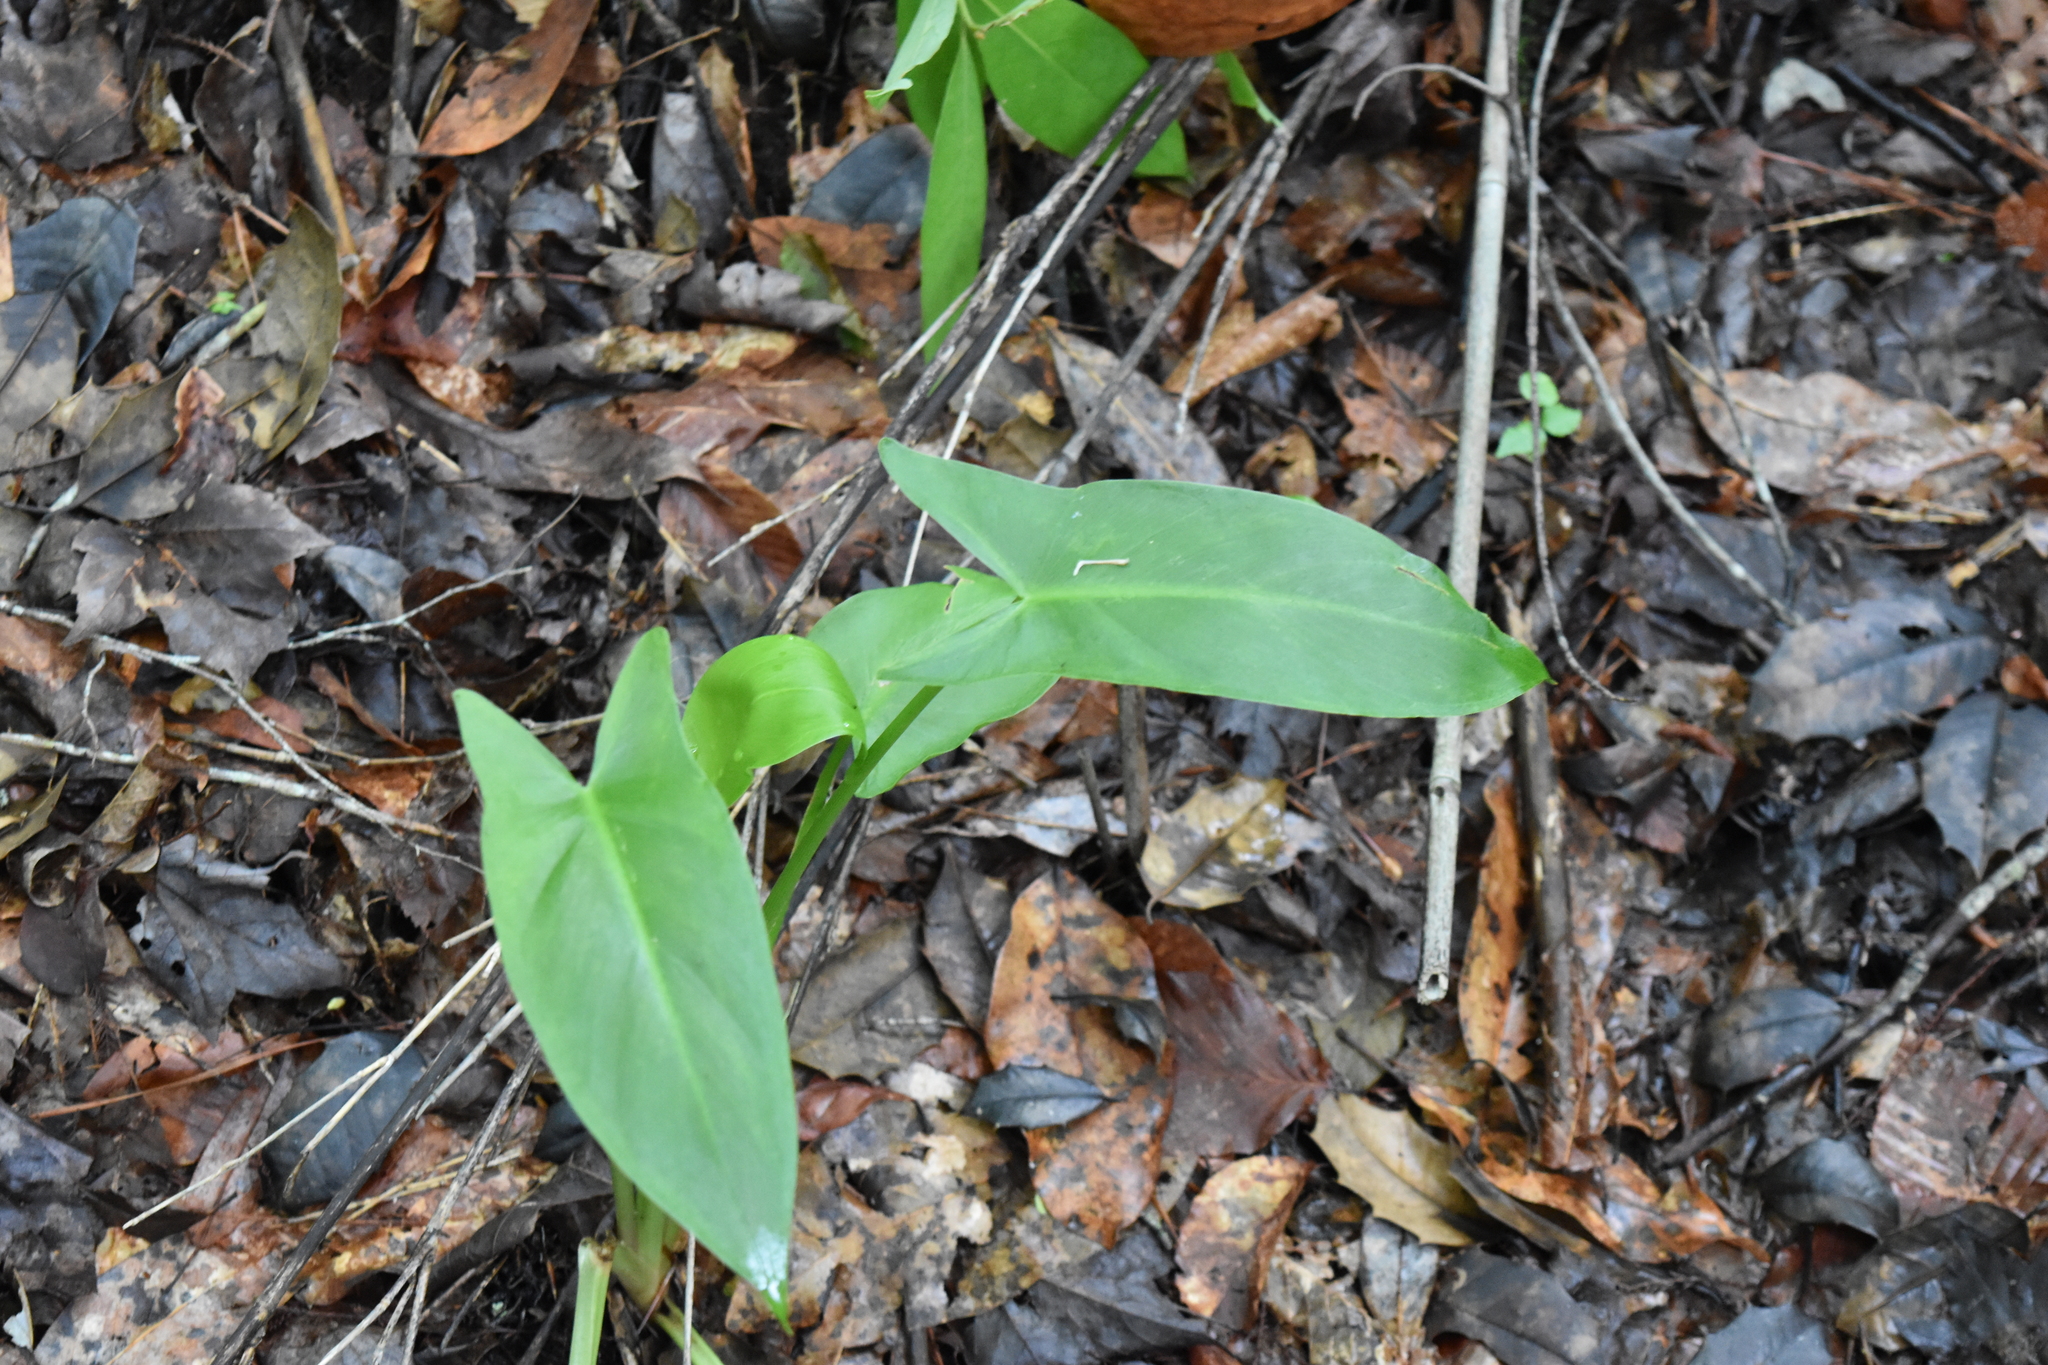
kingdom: Plantae
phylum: Tracheophyta
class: Liliopsida
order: Alismatales
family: Araceae
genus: Peltandra
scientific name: Peltandra virginica
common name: Arrow arum
